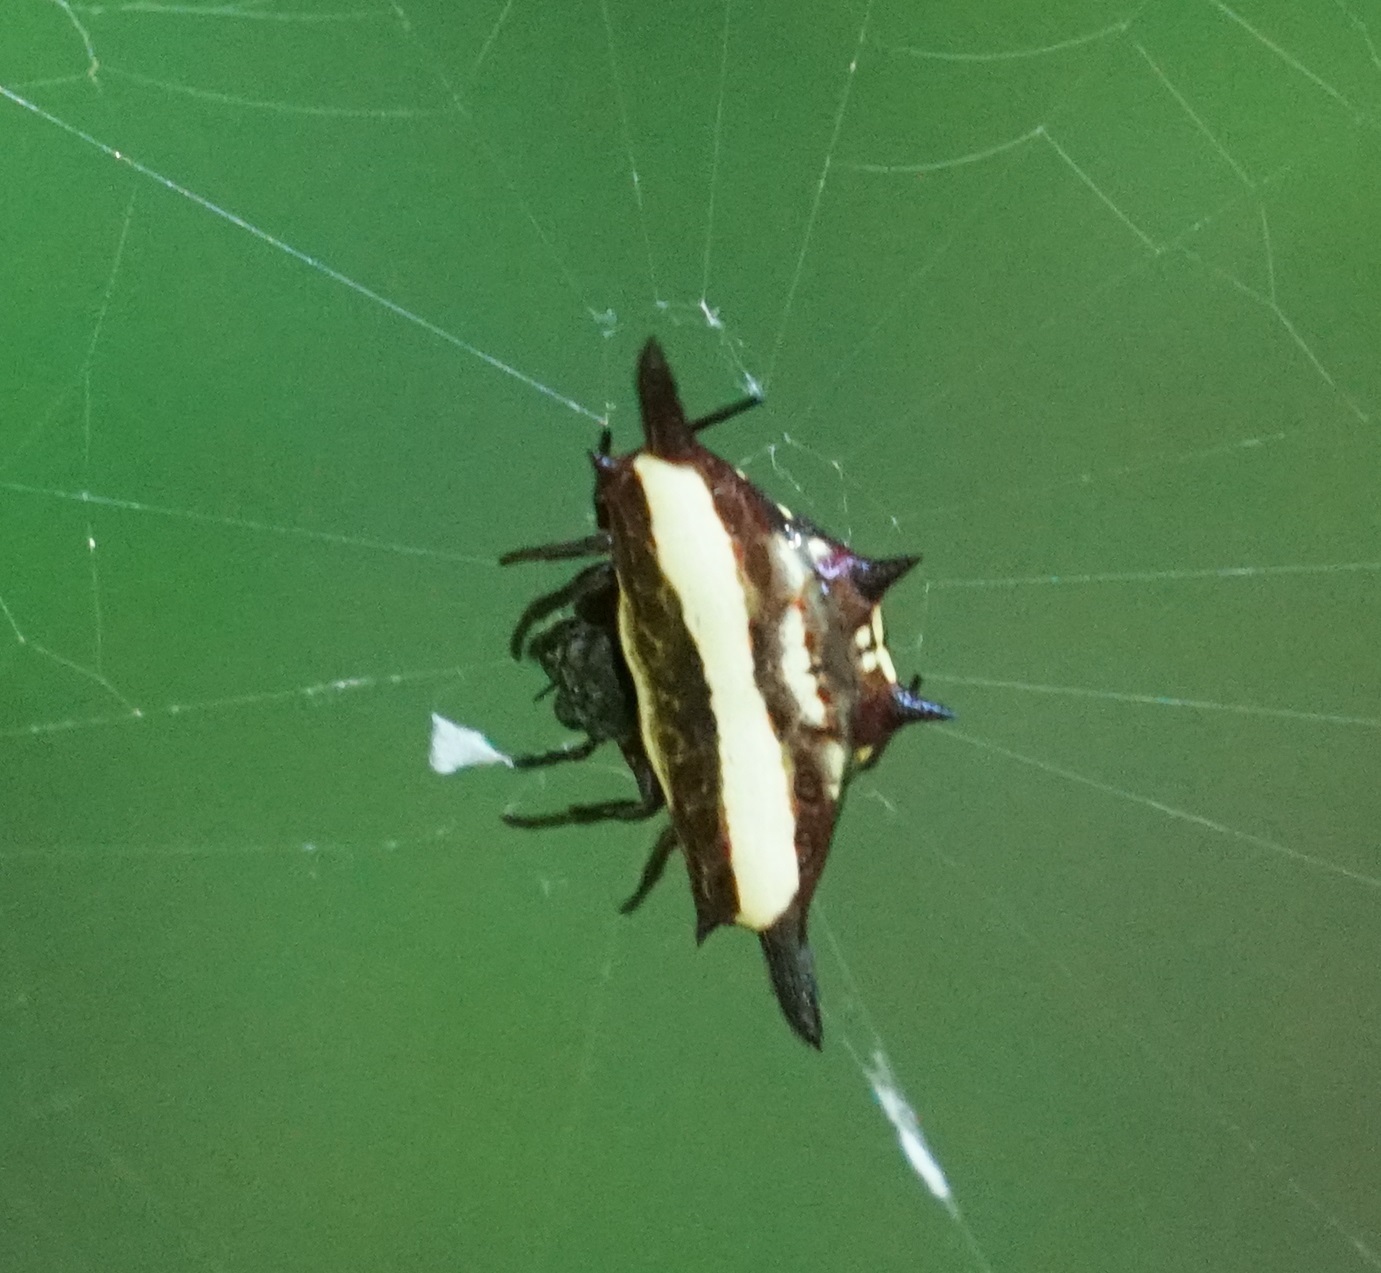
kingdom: Animalia
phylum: Arthropoda
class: Arachnida
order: Araneae
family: Araneidae
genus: Gasteracantha
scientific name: Gasteracantha fornicata
